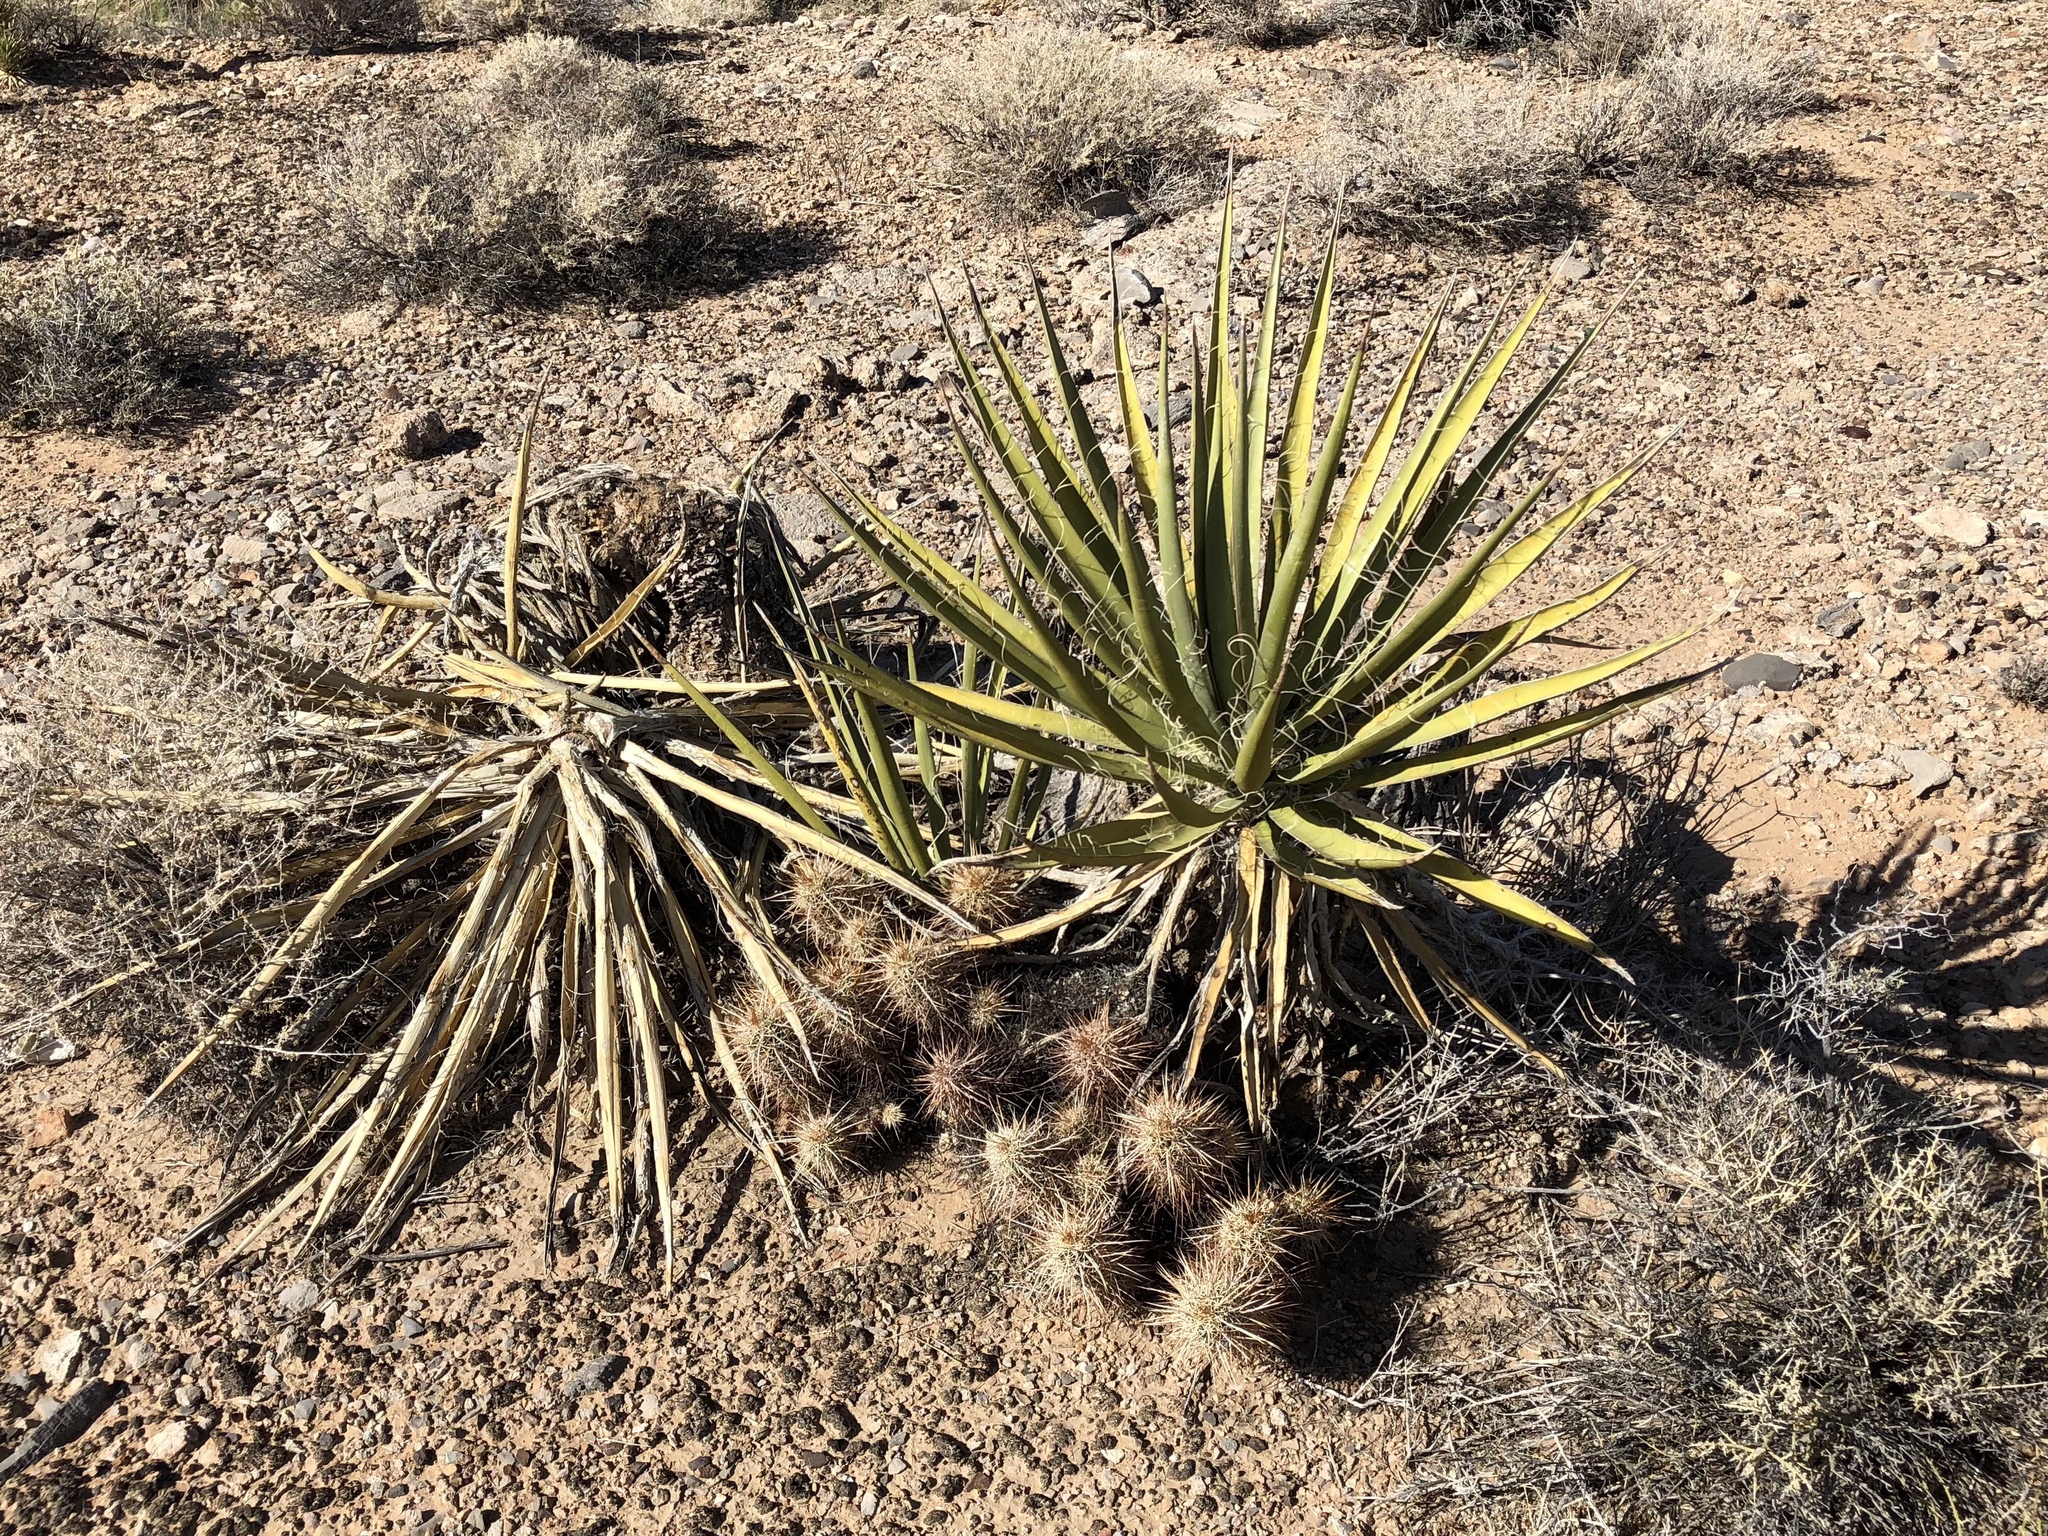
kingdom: Plantae
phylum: Tracheophyta
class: Liliopsida
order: Asparagales
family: Asparagaceae
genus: Yucca
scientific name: Yucca schidigera
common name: Mojave yucca
